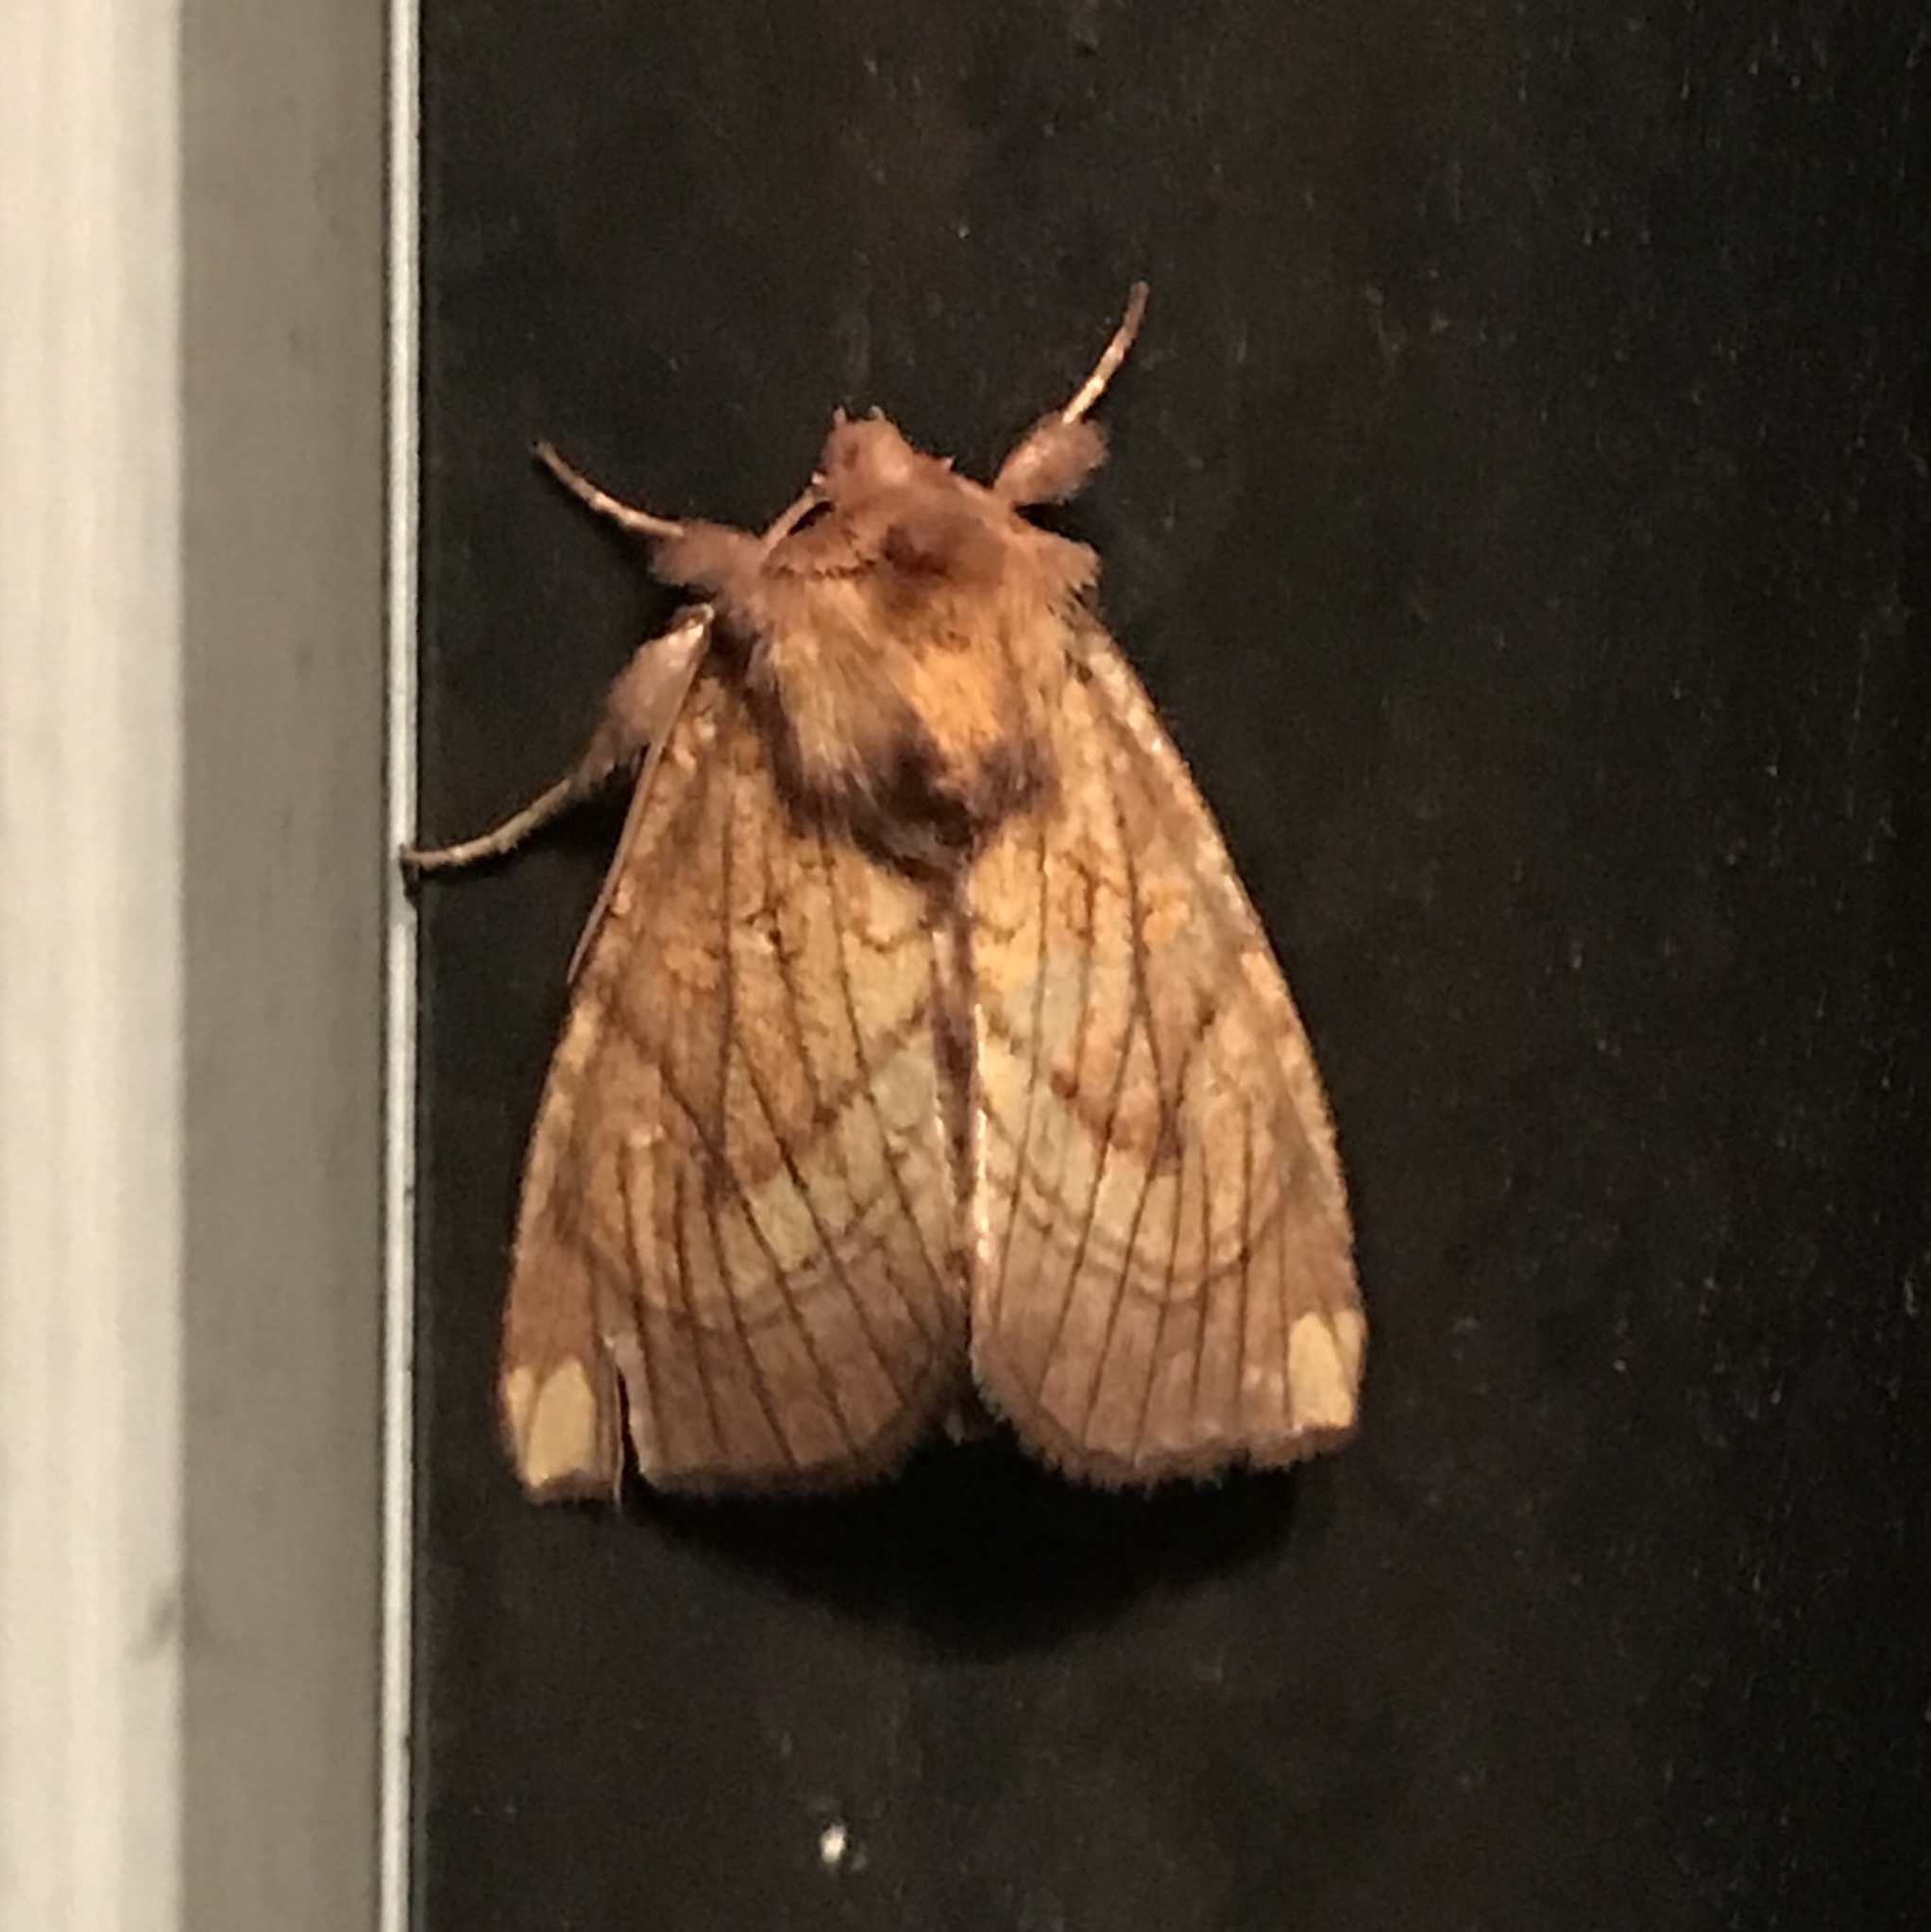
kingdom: Animalia
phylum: Arthropoda
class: Insecta
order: Lepidoptera
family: Noctuidae
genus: Papaipema
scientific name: Papaipema inquaesita
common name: Sensitive fern borer moth
